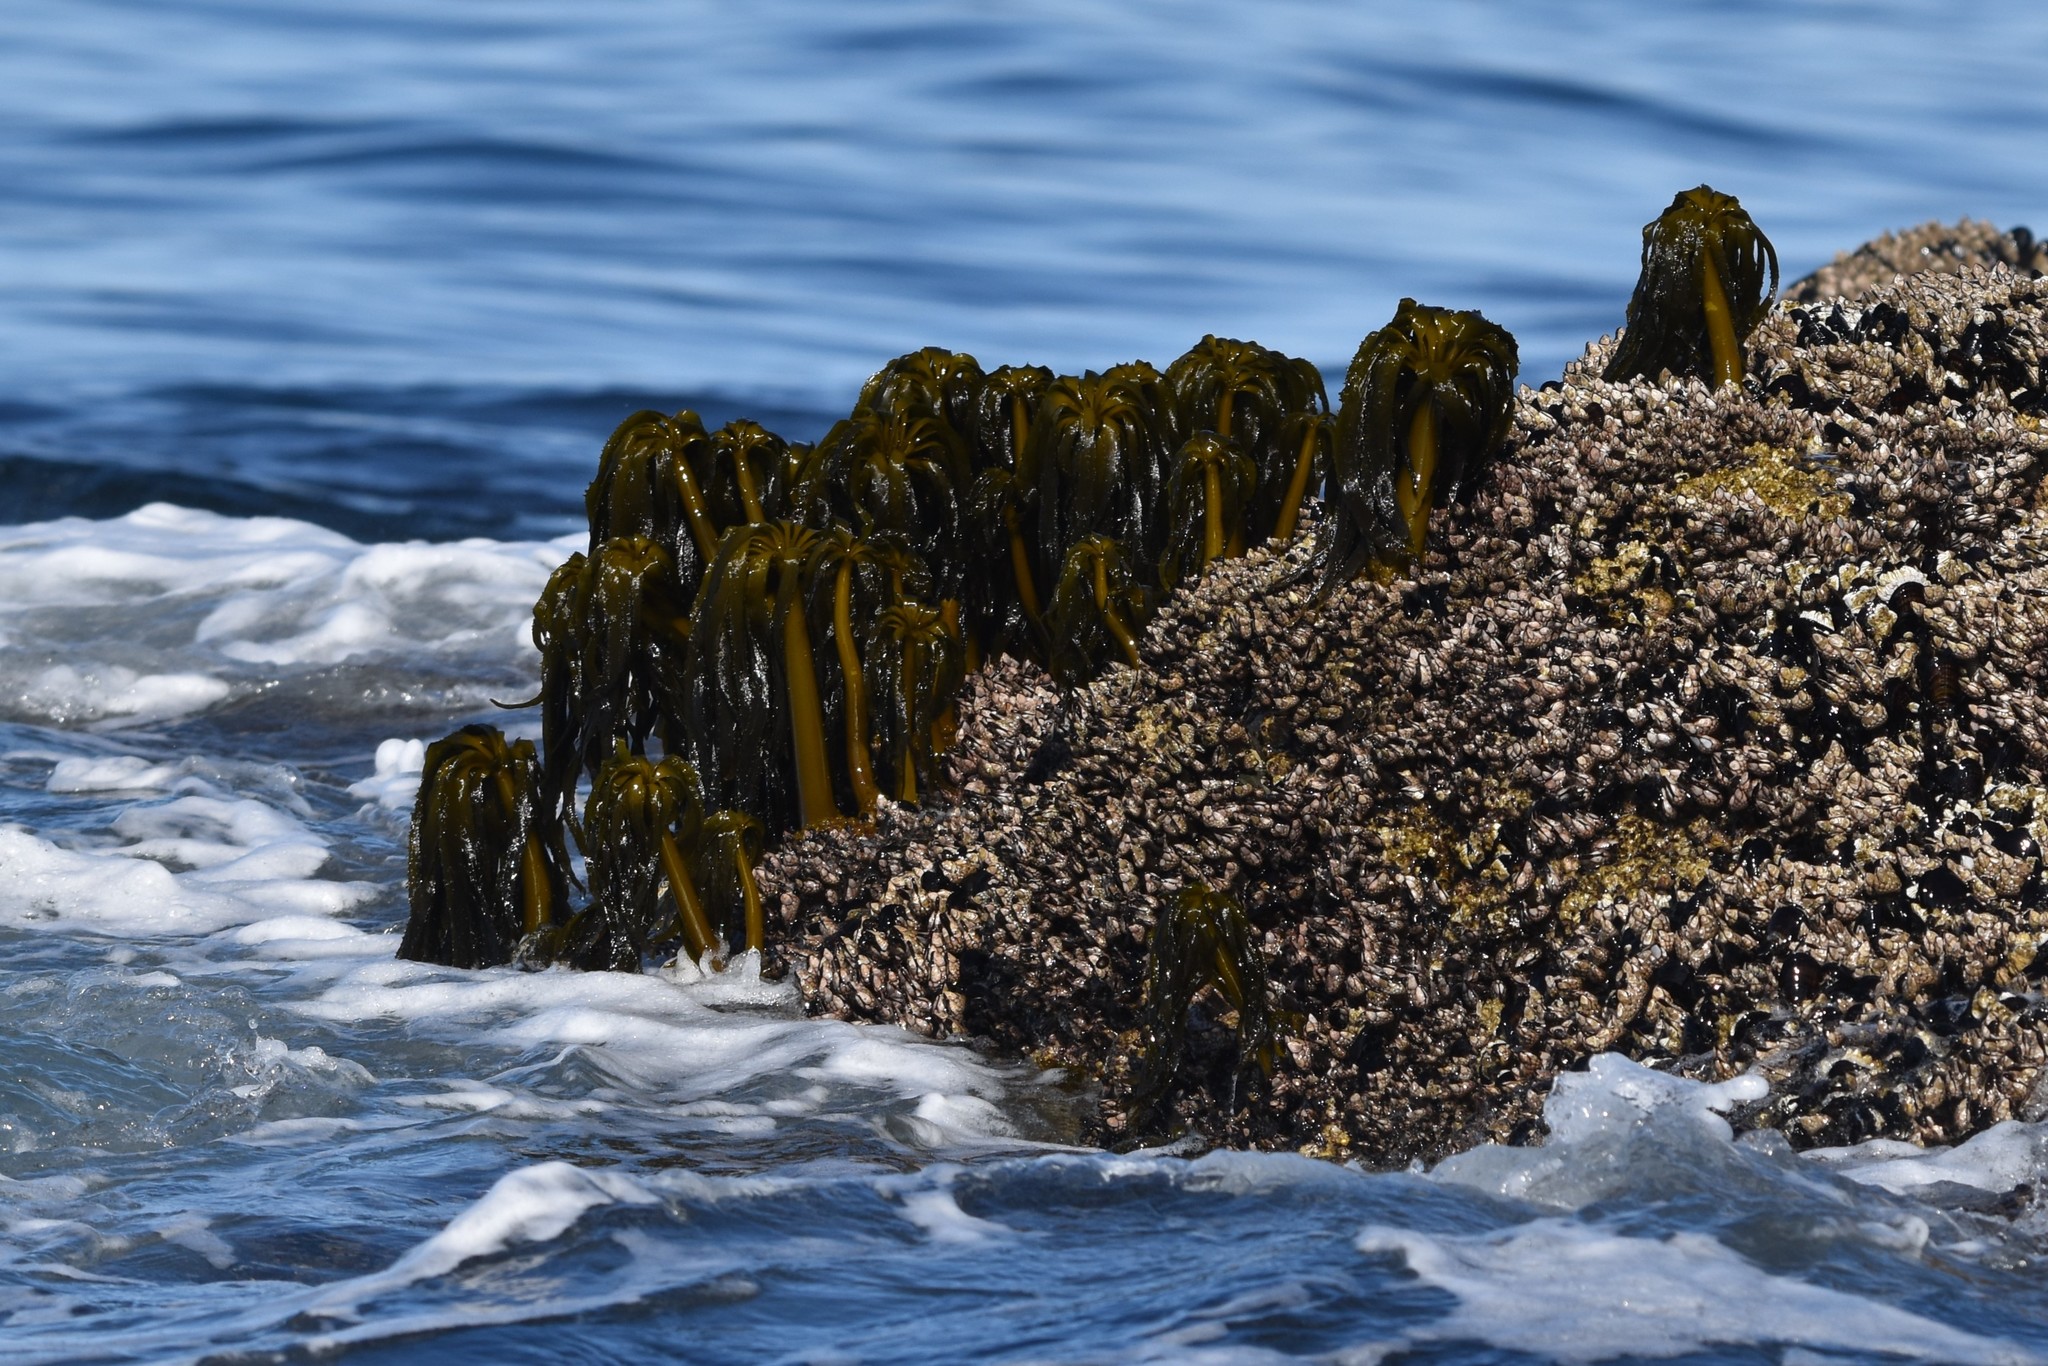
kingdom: Chromista
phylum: Ochrophyta
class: Phaeophyceae
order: Laminariales
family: Laminariaceae
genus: Postelsia
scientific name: Postelsia palmiformis
